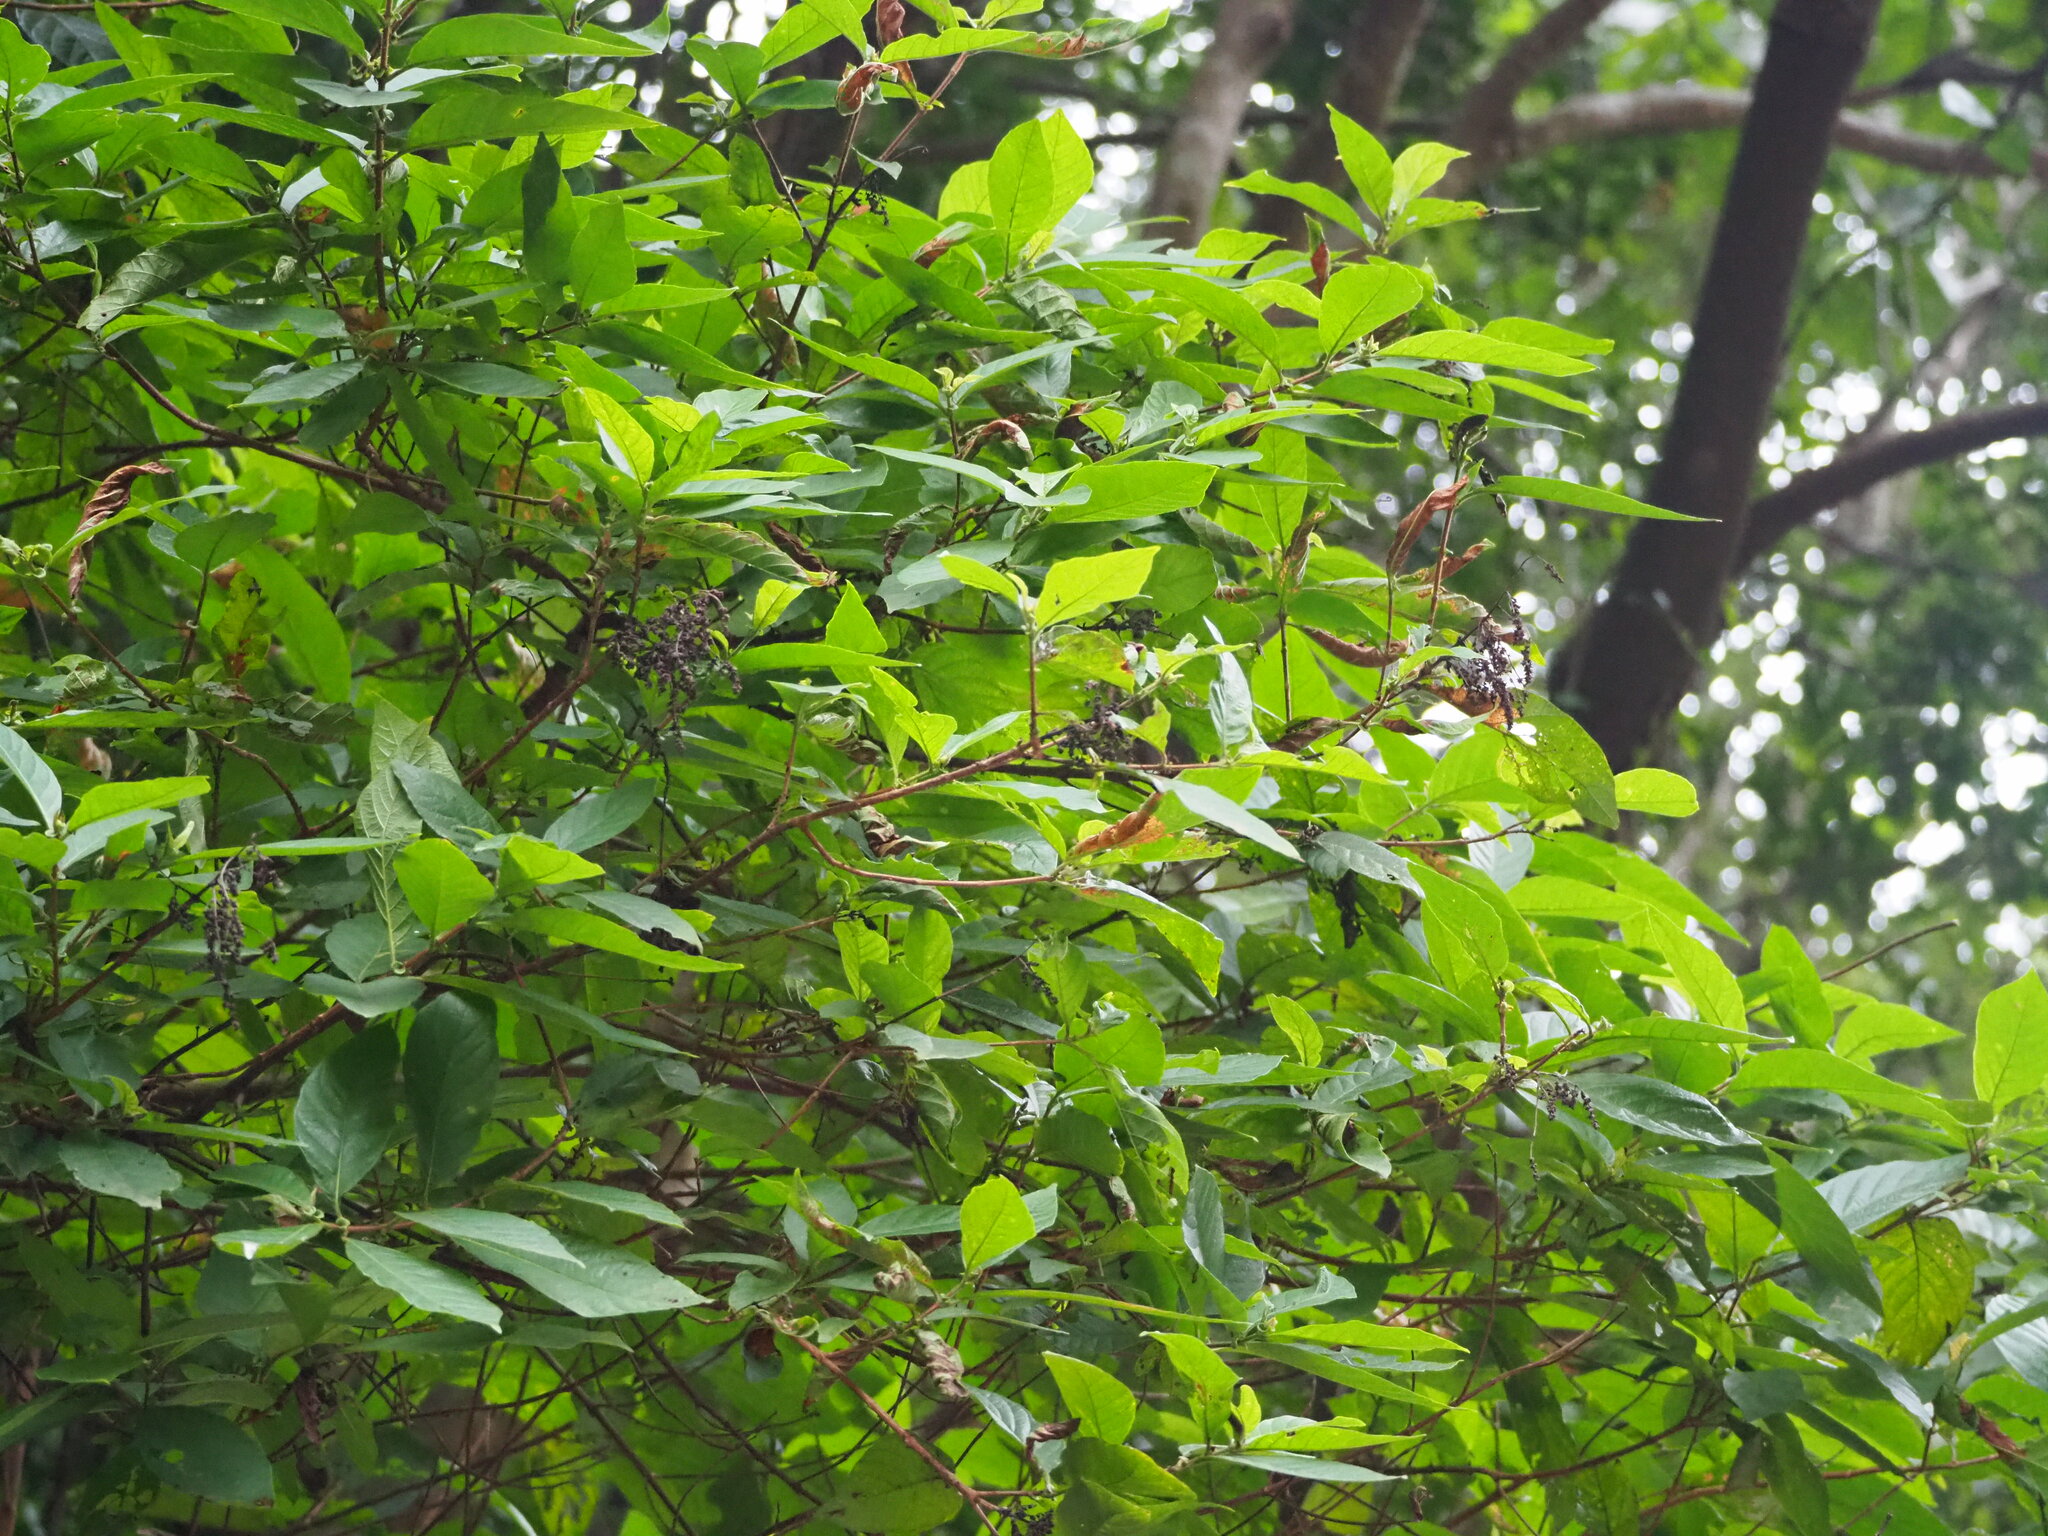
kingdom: Plantae
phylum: Tracheophyta
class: Magnoliopsida
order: Gentianales
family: Rubiaceae
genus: Wendlandia
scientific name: Wendlandia uvariifolia
